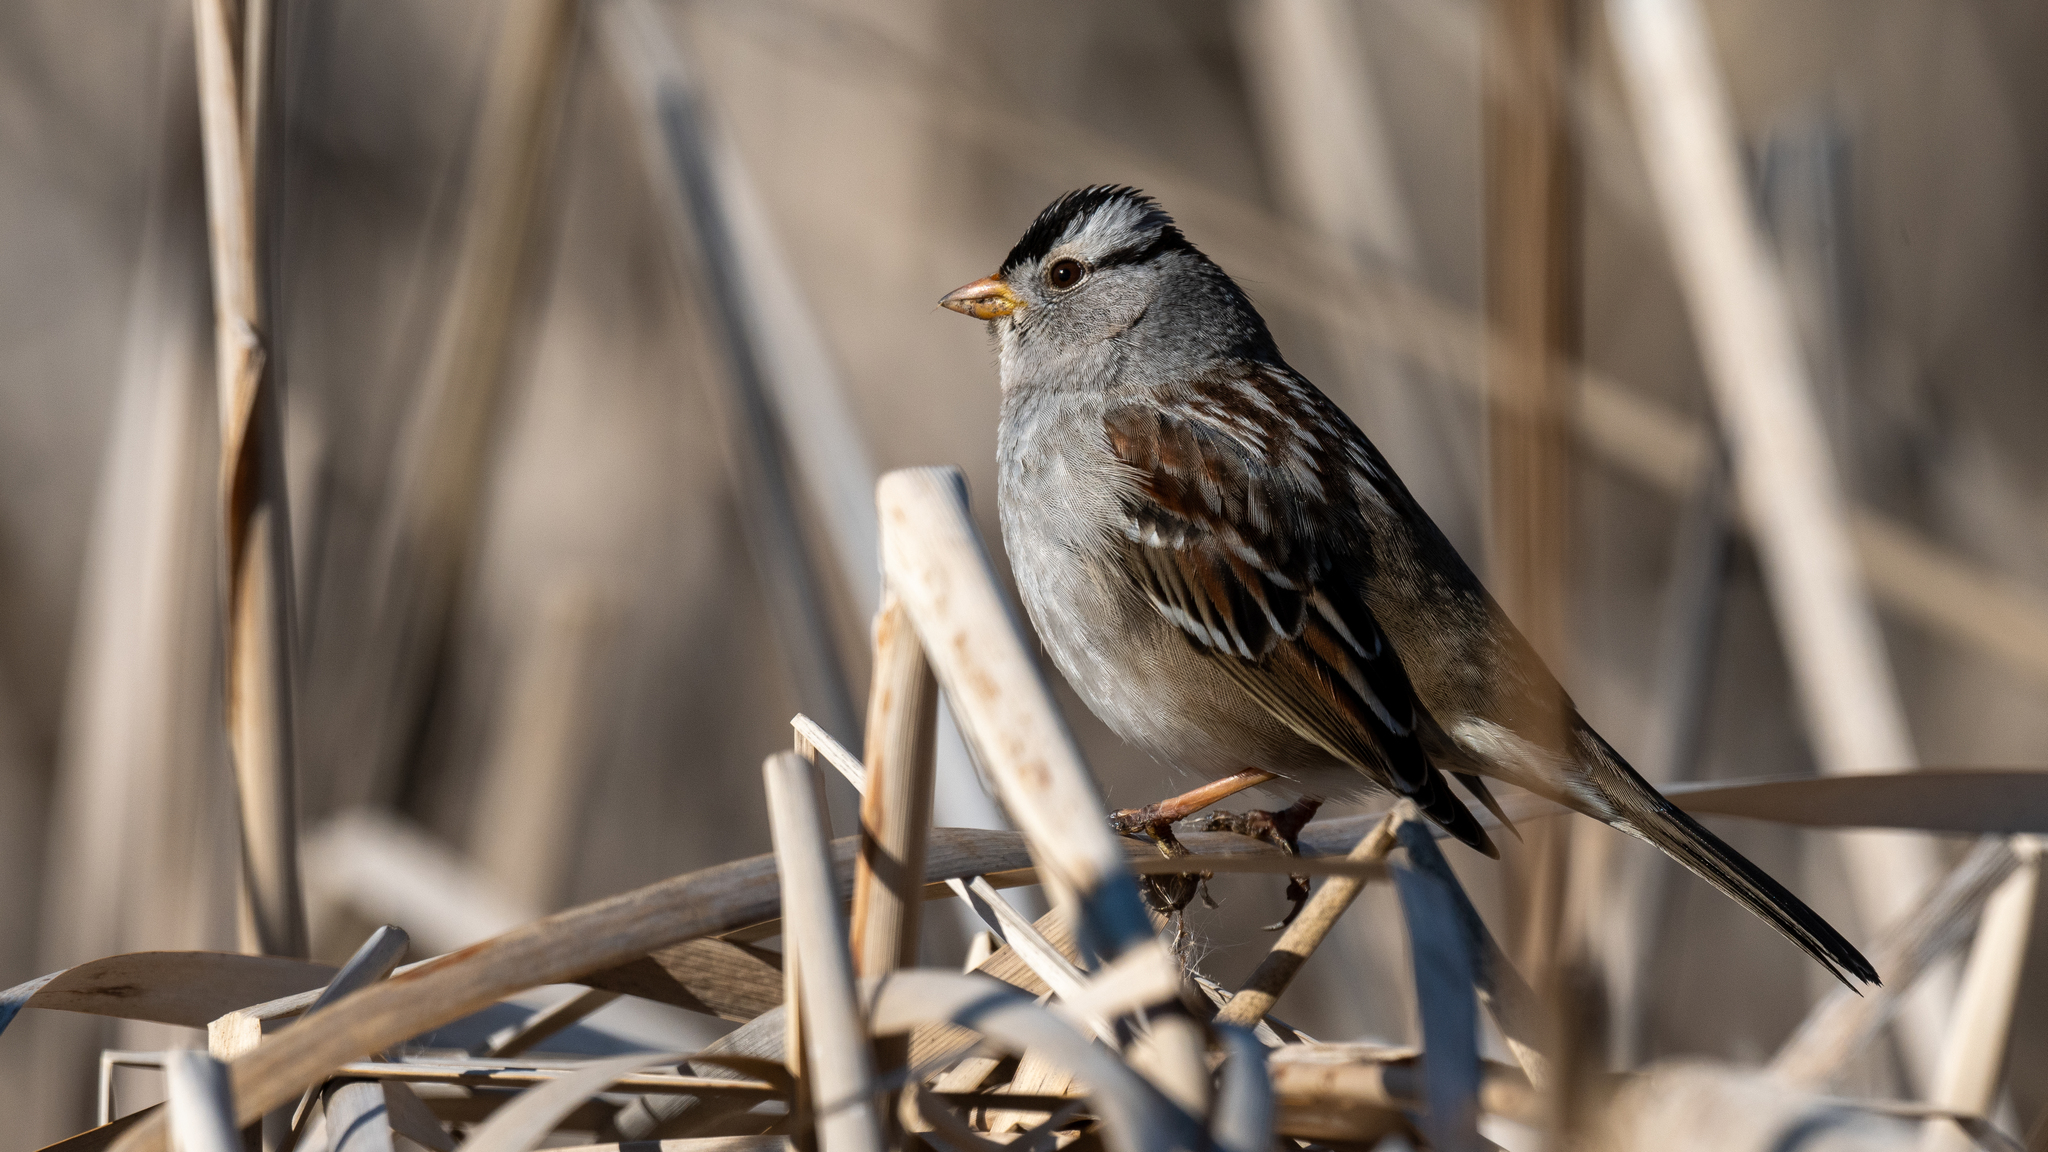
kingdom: Animalia
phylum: Chordata
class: Aves
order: Passeriformes
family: Passerellidae
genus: Zonotrichia
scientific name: Zonotrichia leucophrys
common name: White-crowned sparrow
